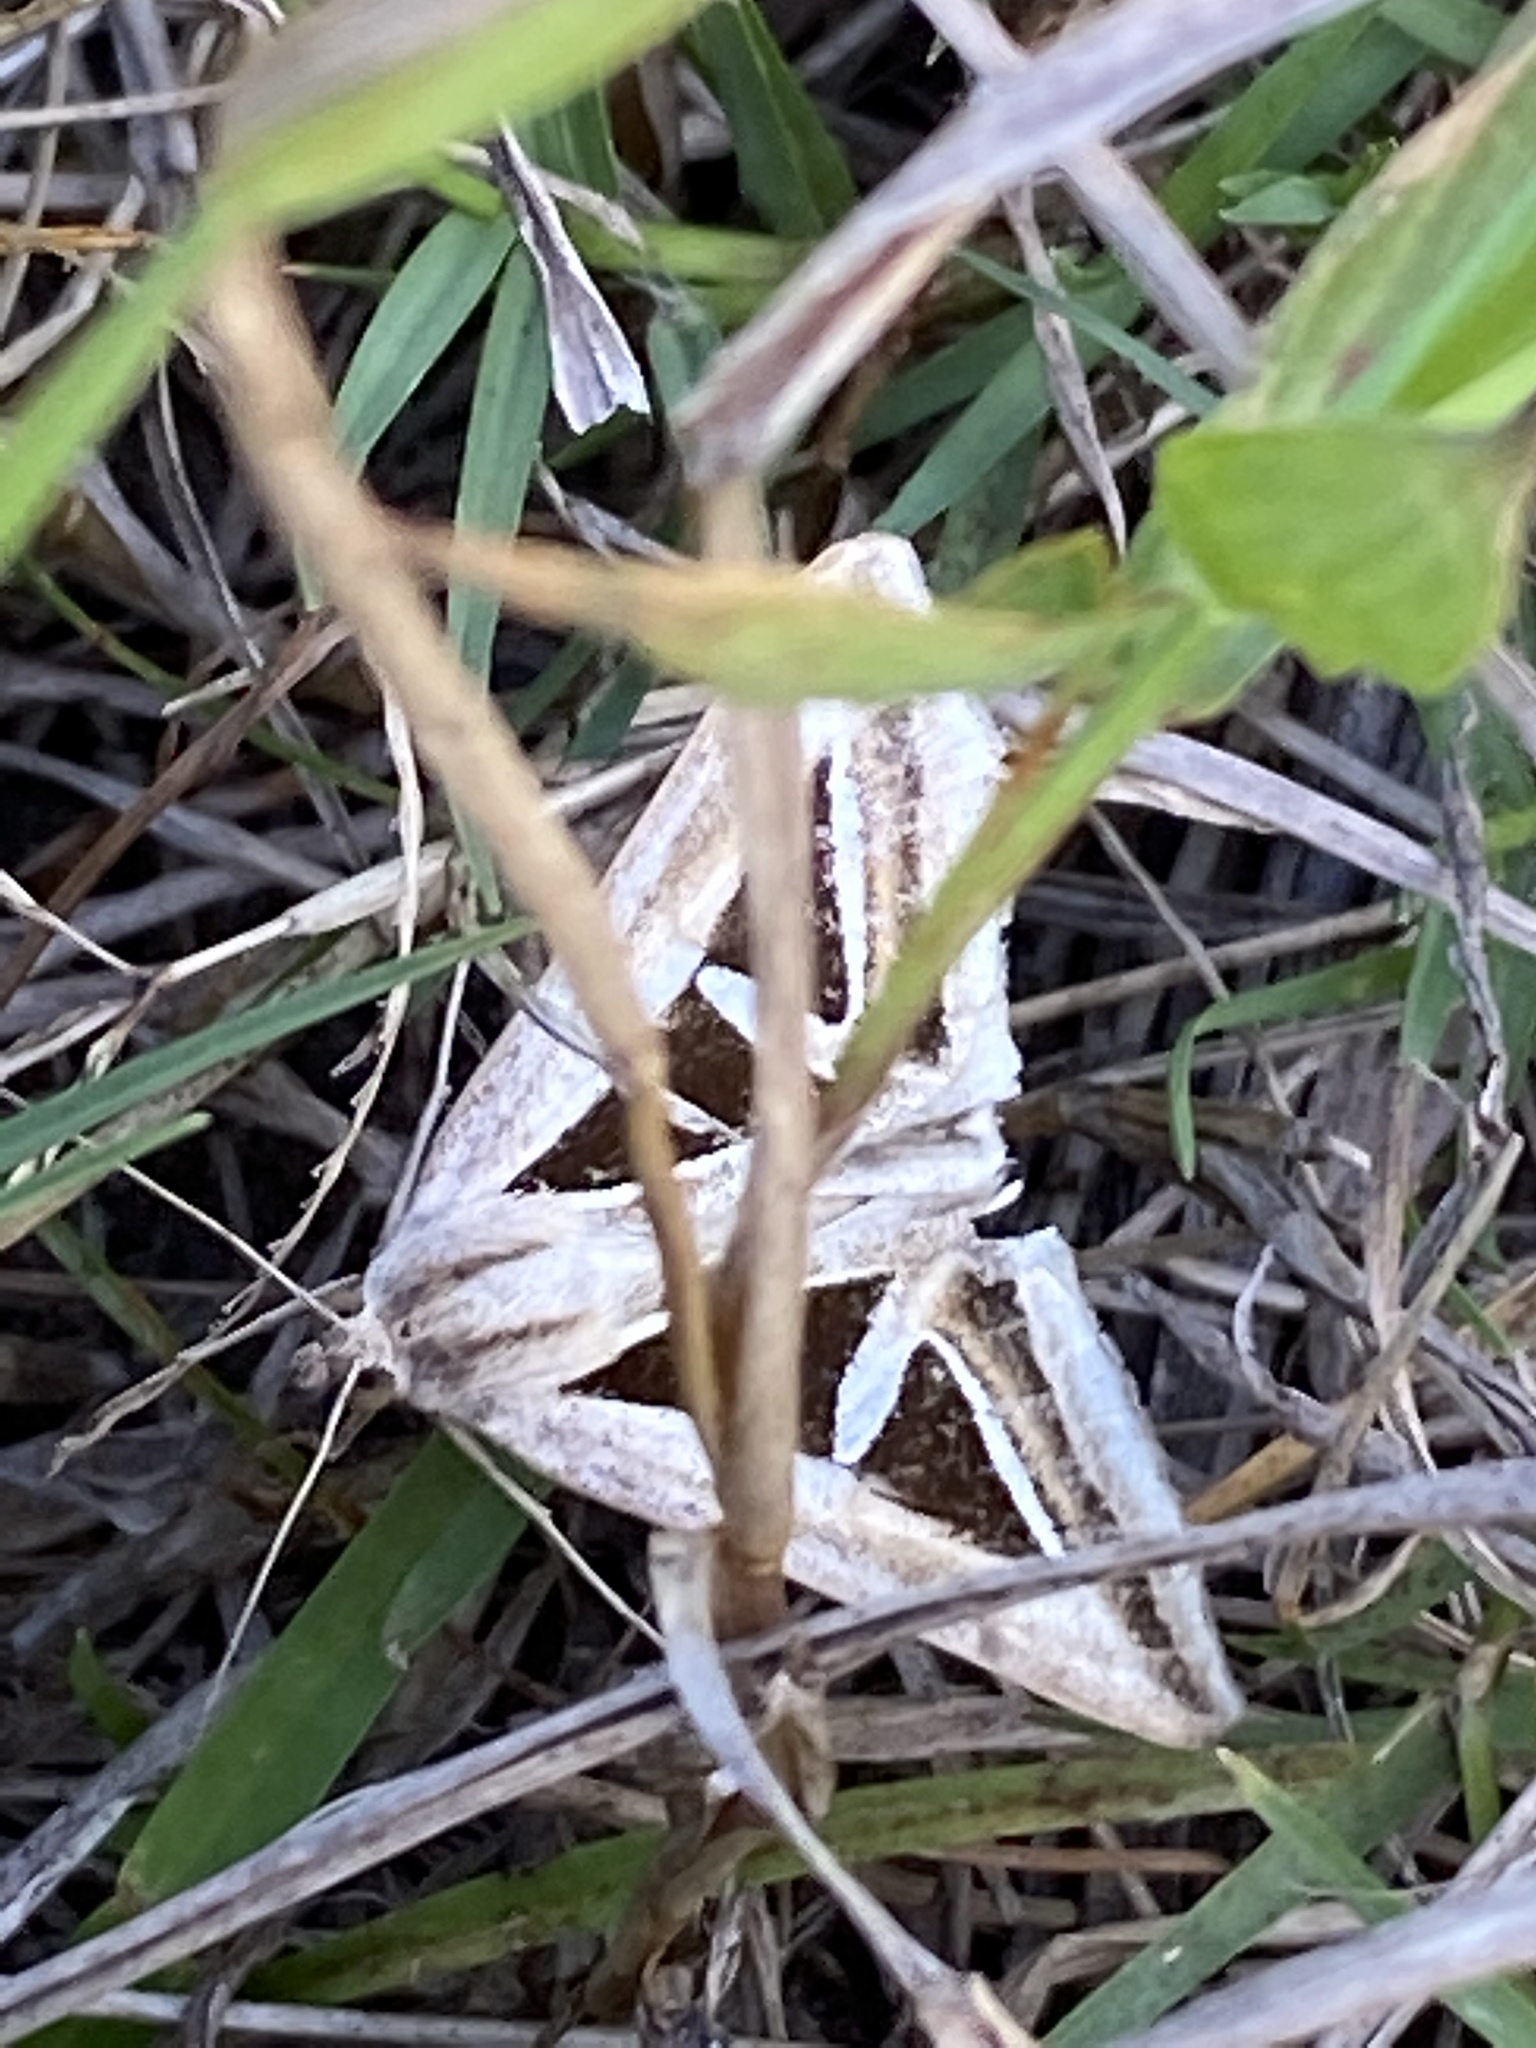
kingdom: Animalia
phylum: Arthropoda
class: Insecta
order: Lepidoptera
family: Erebidae
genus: Trigonodes
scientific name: Trigonodes hyppasia
